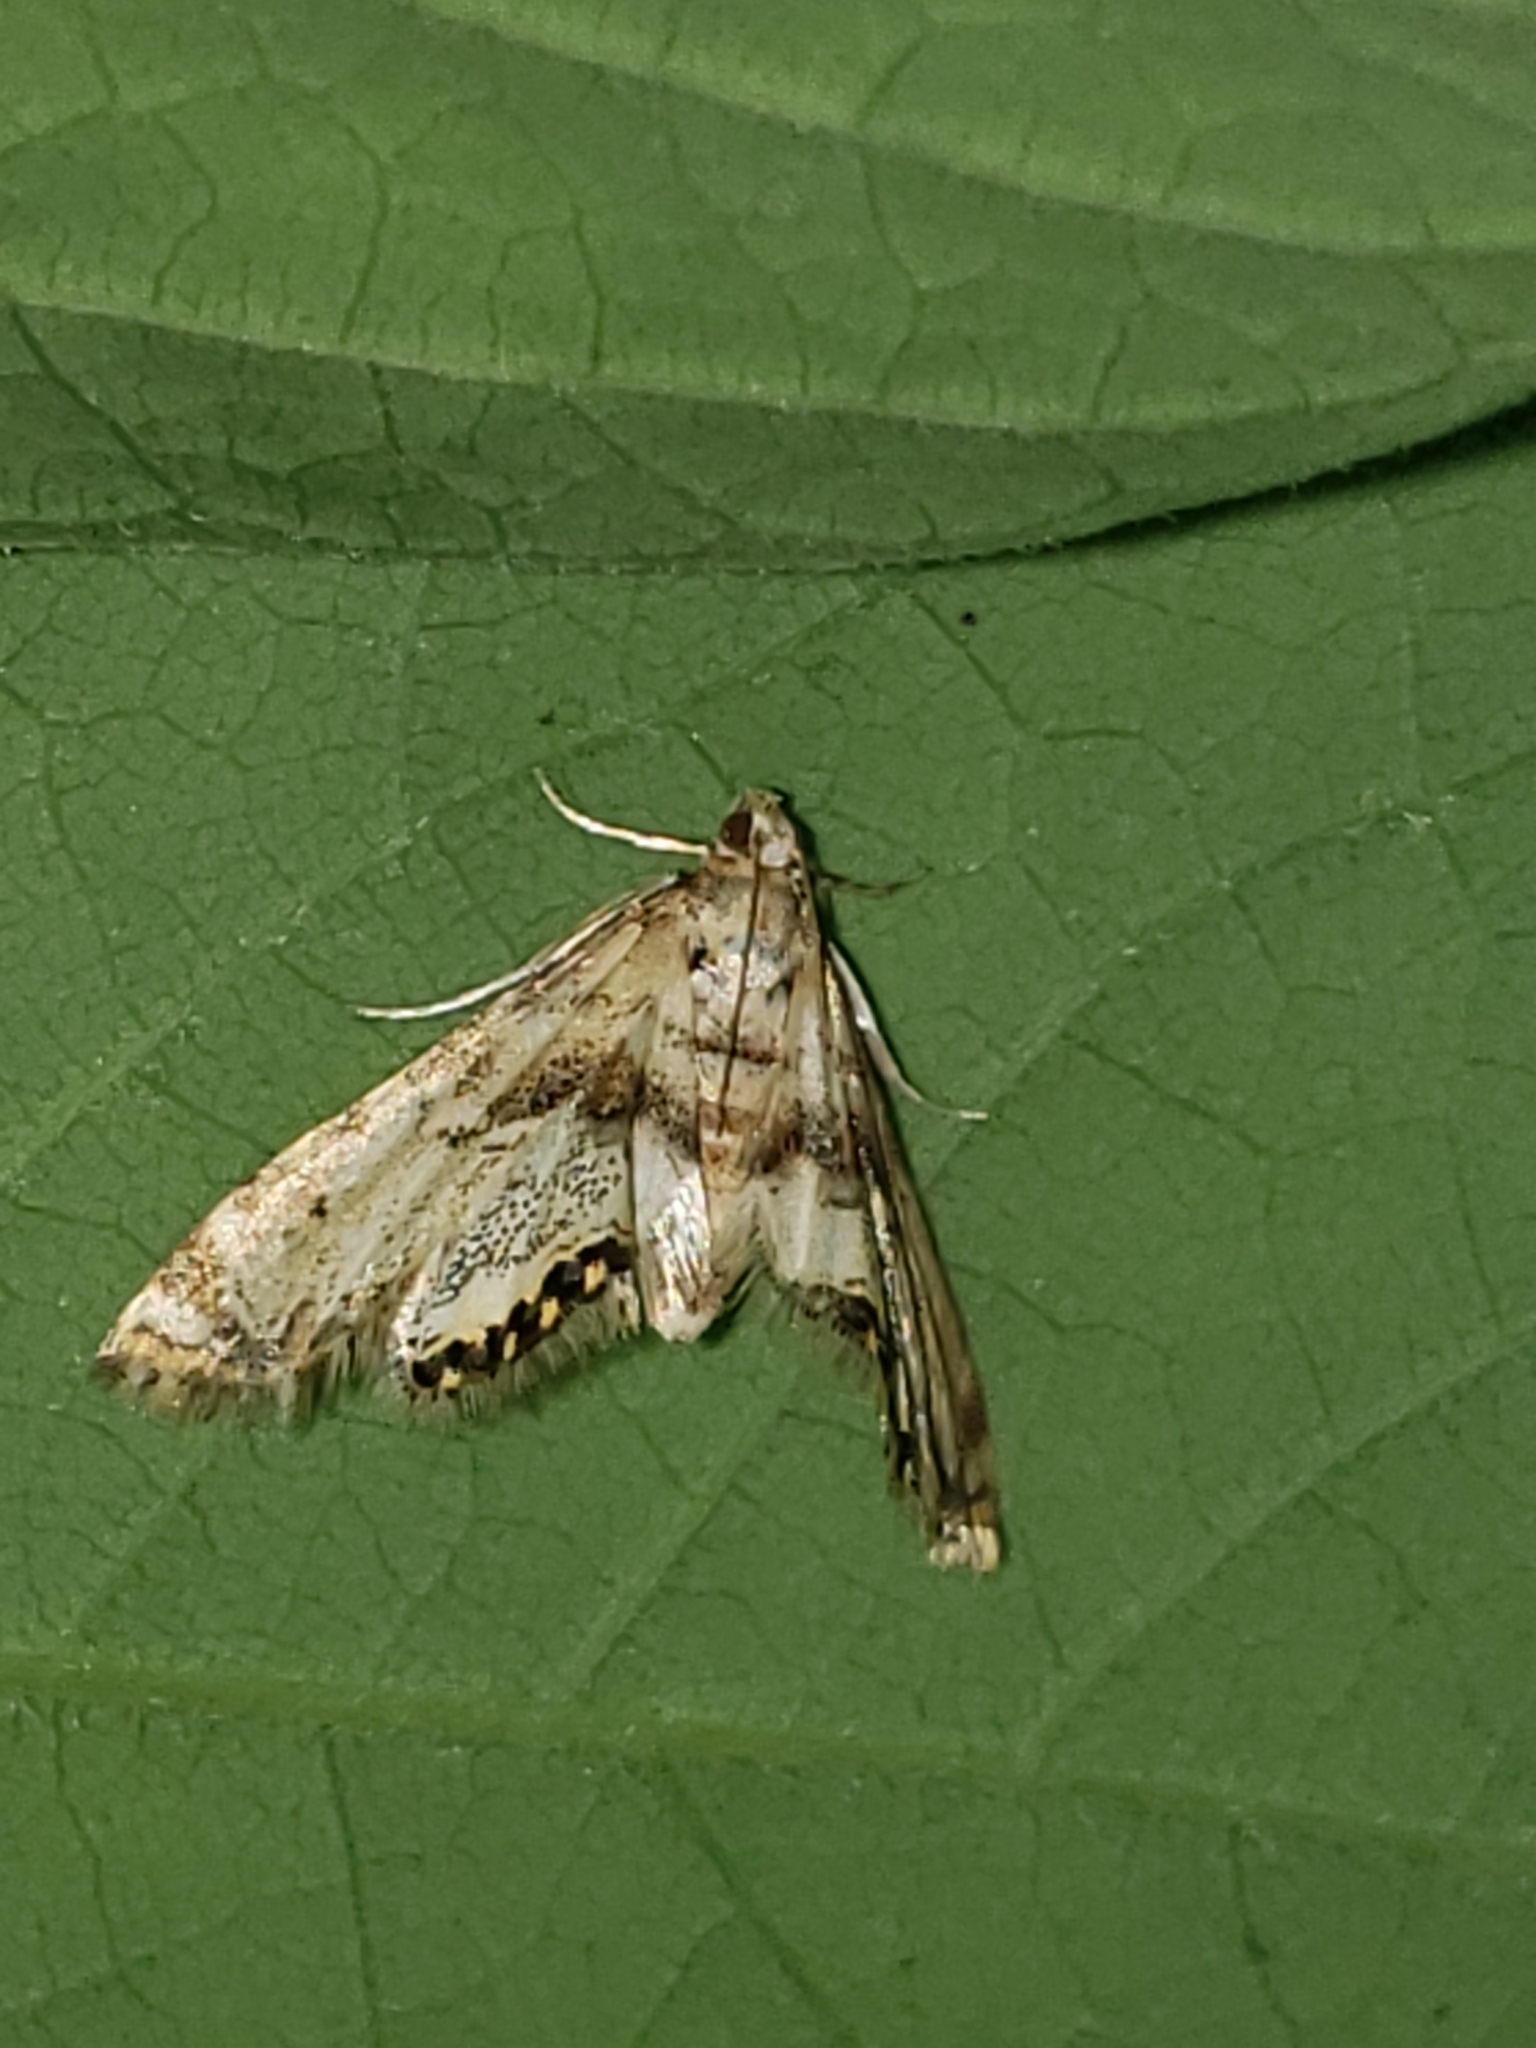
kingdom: Animalia
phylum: Arthropoda
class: Insecta
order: Lepidoptera
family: Crambidae
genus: Petrophila
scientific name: Petrophila fulicalis
